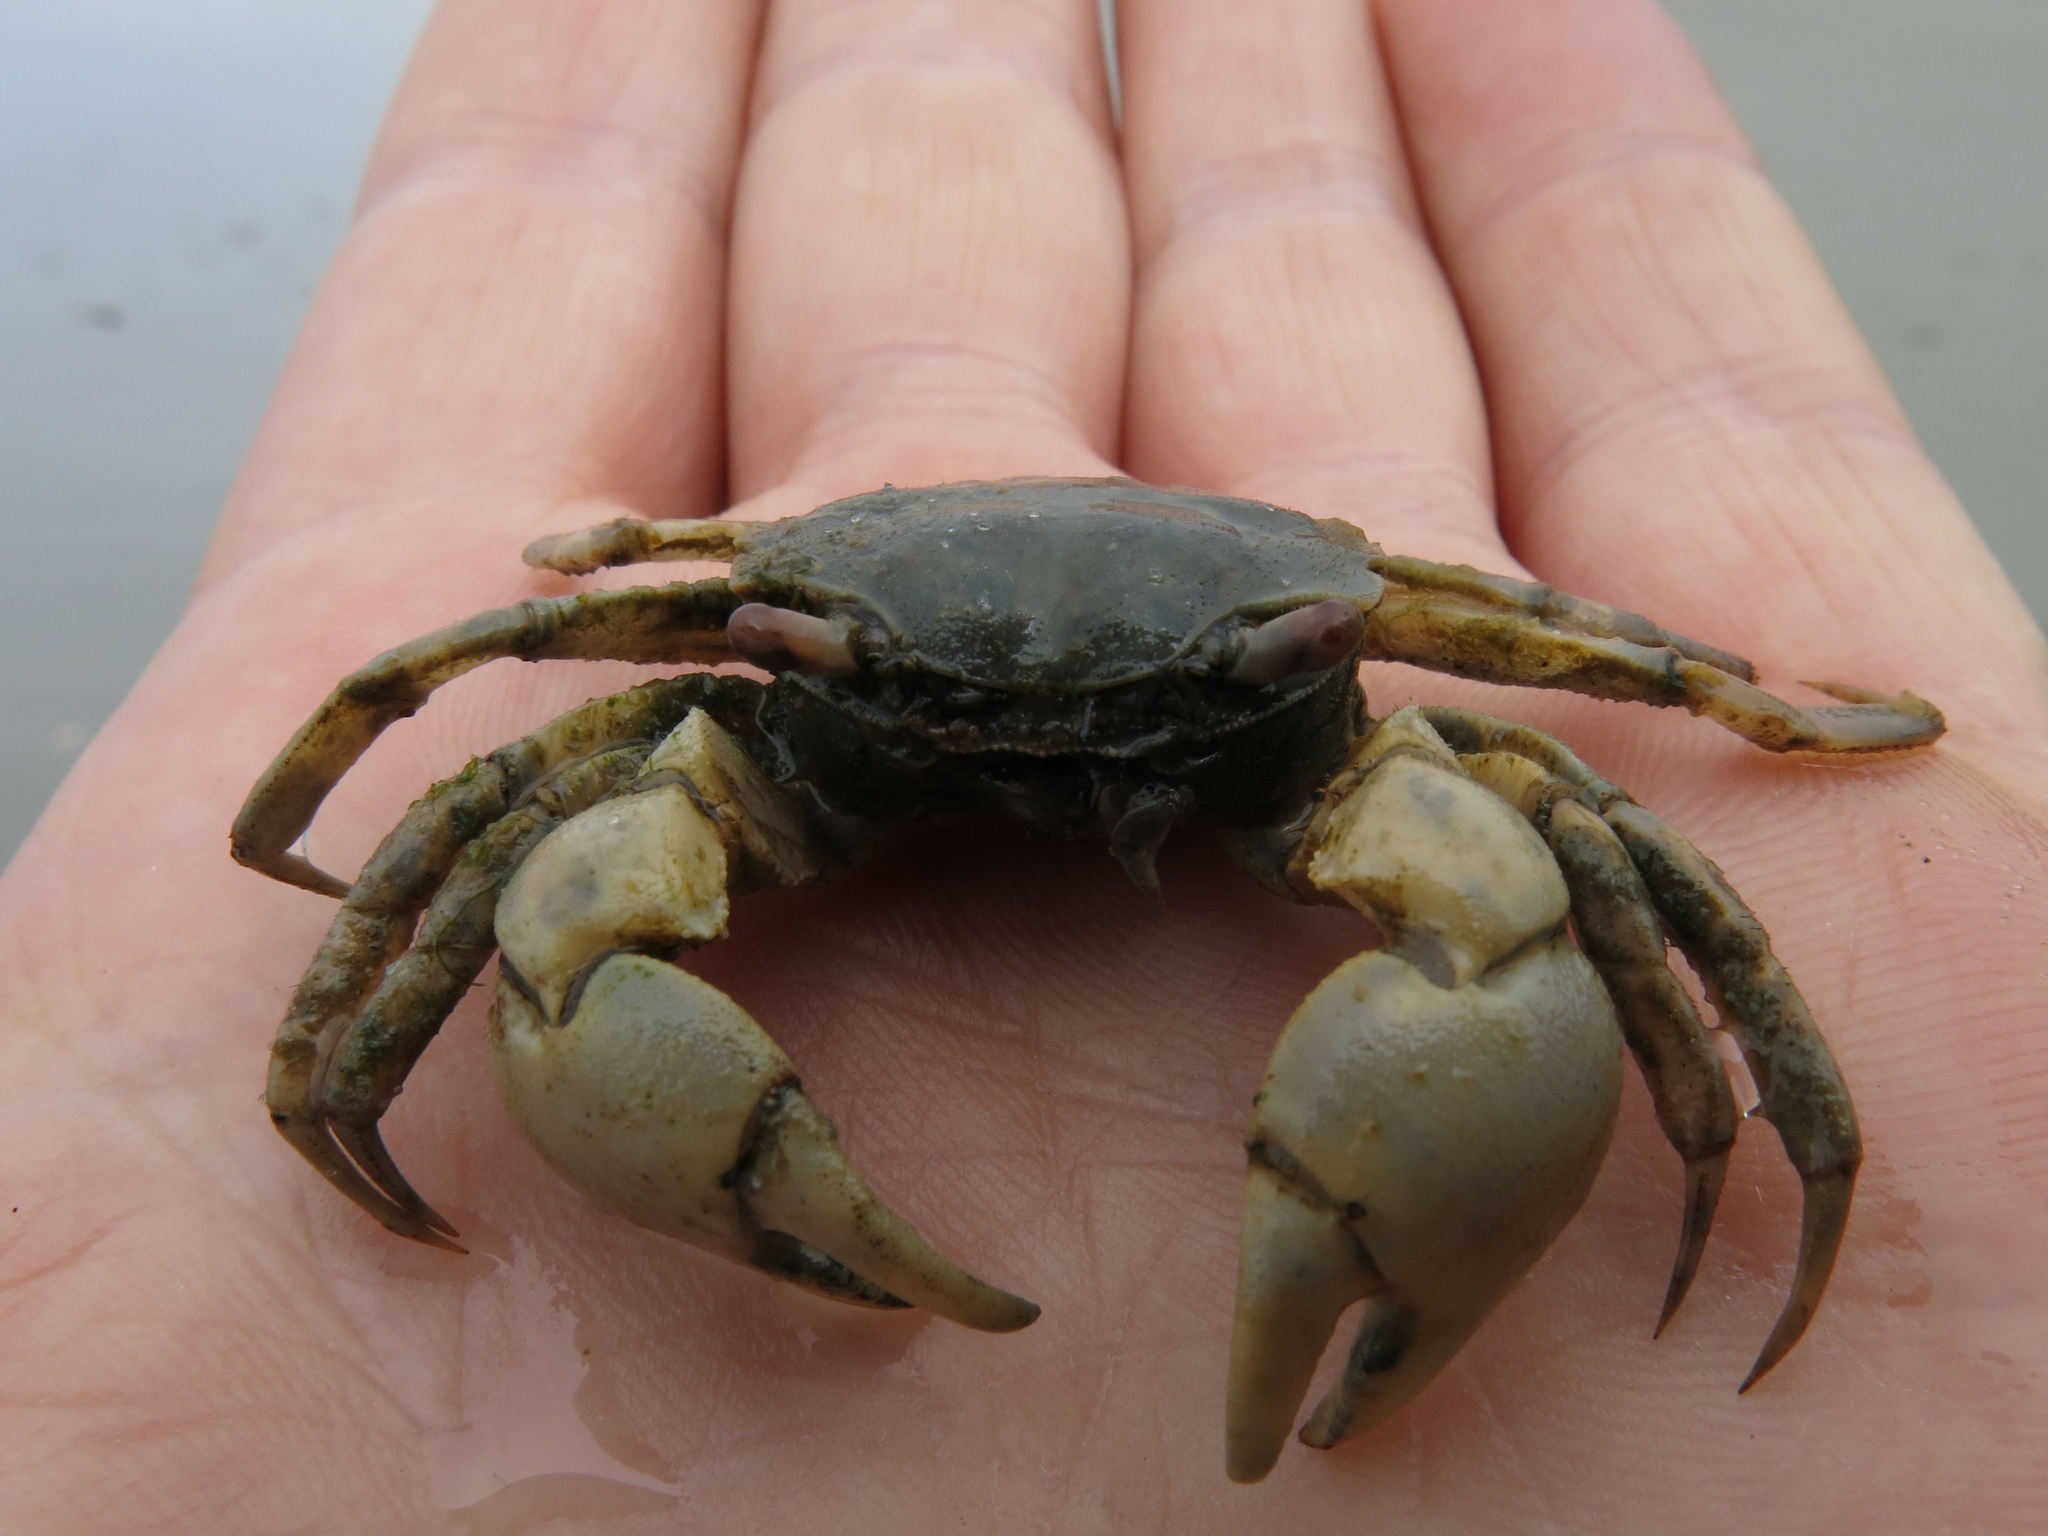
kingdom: Animalia
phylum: Arthropoda
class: Malacostraca
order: Decapoda
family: Varunidae
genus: Austrohelice
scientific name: Austrohelice crassa
